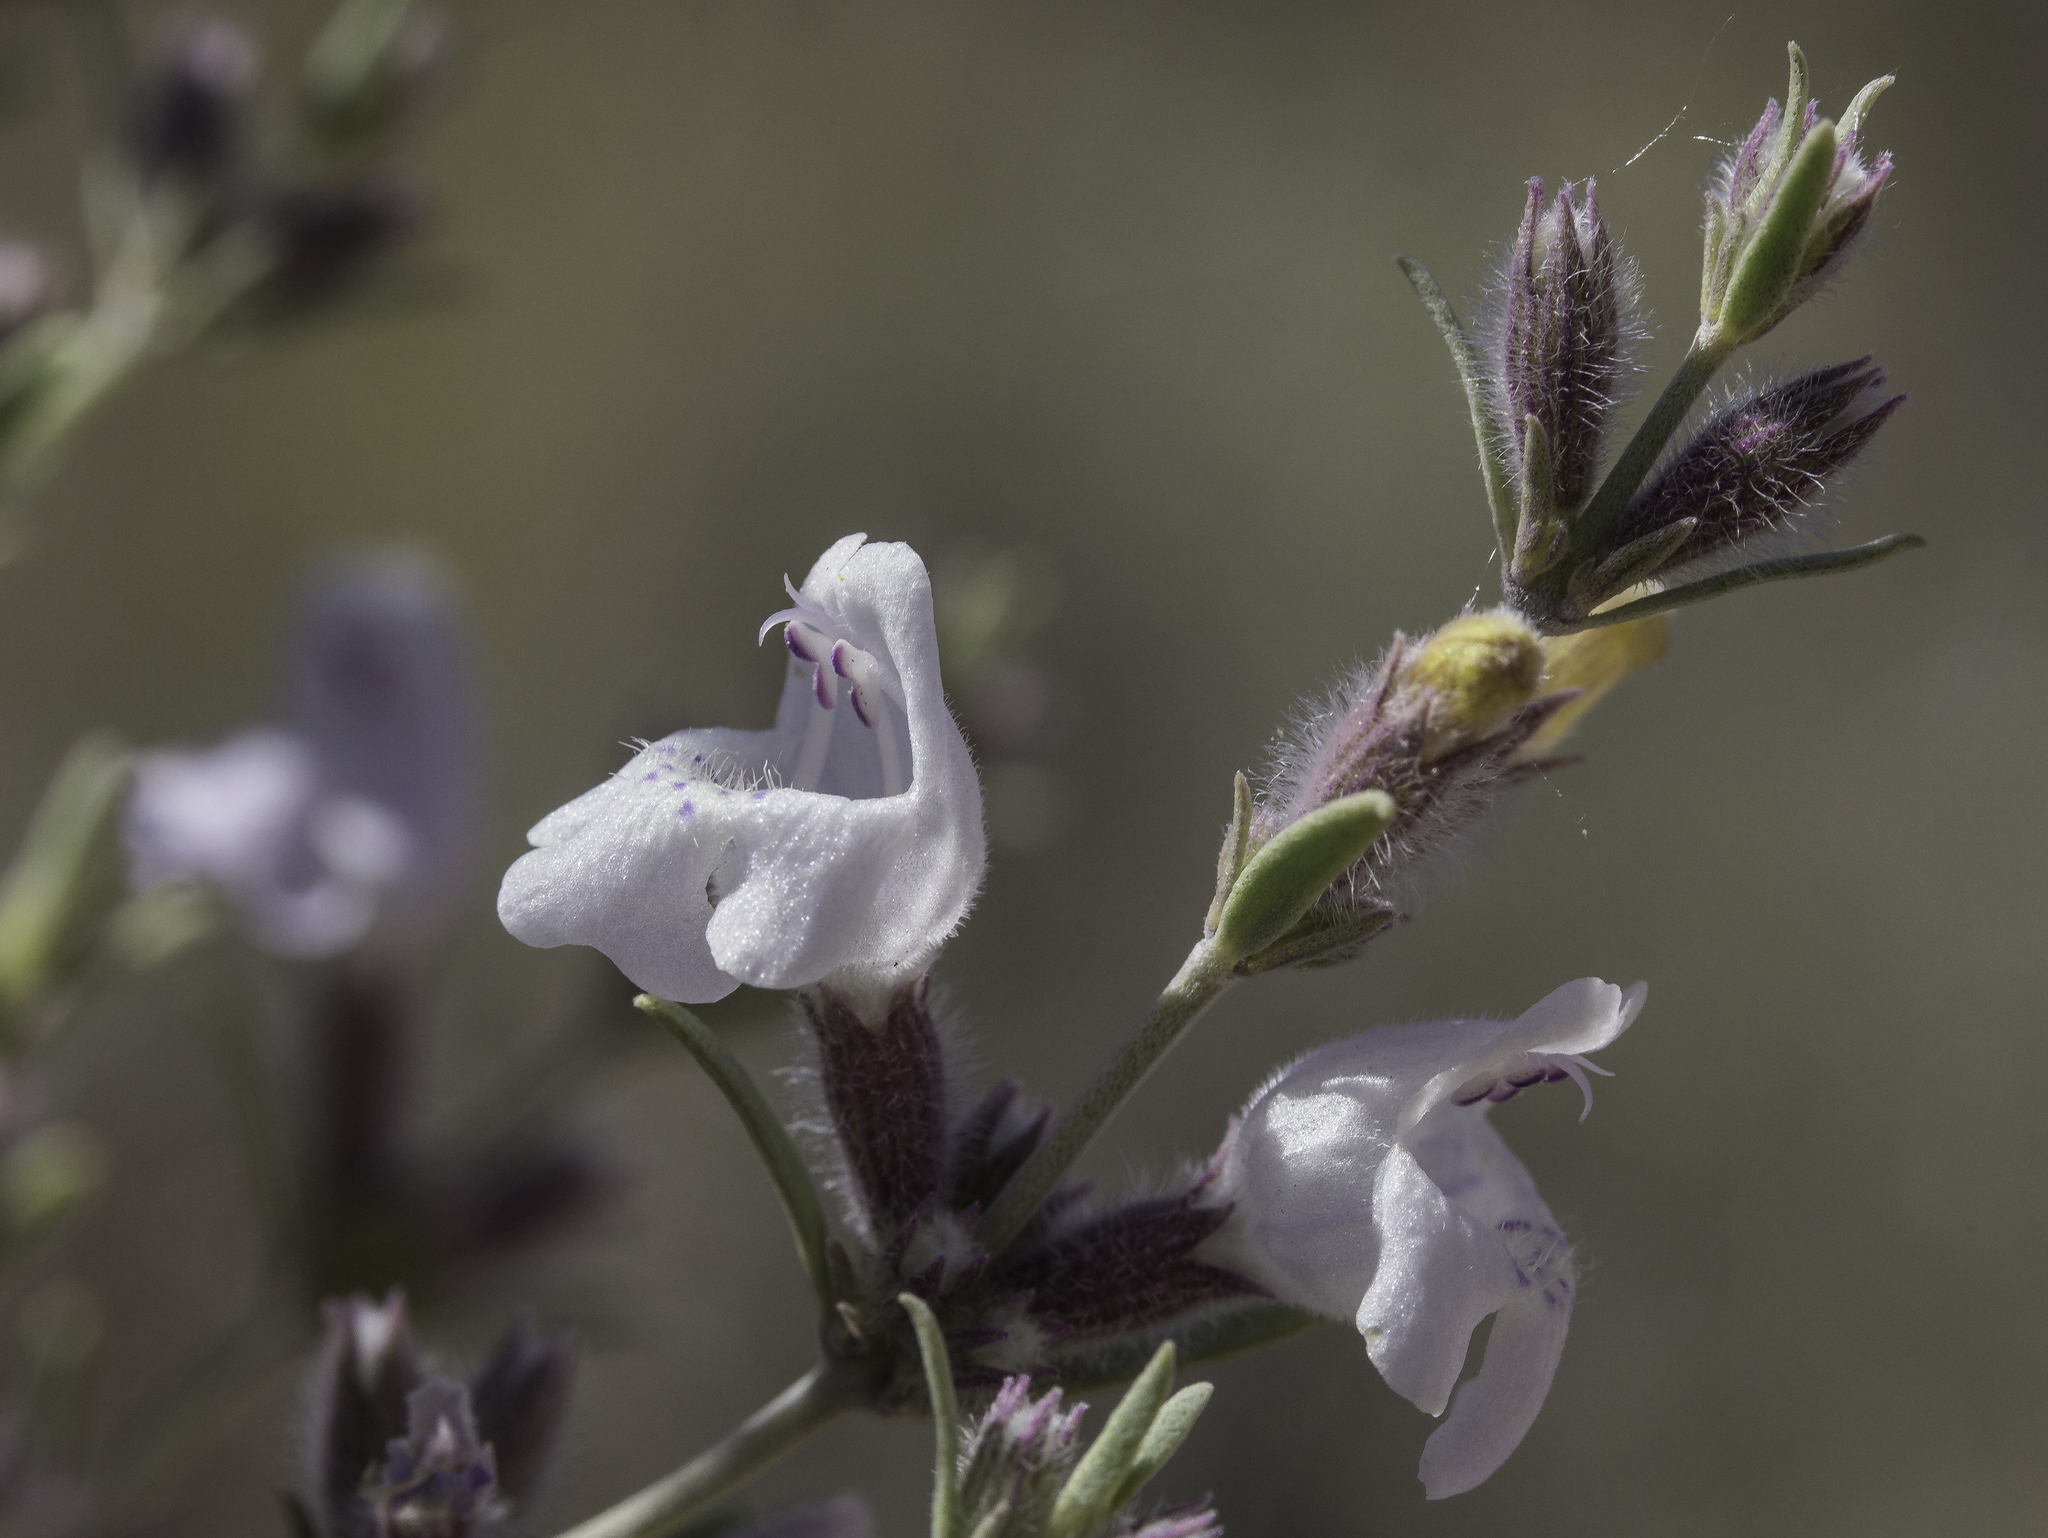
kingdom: Plantae
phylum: Tracheophyta
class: Magnoliopsida
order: Lamiales
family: Lamiaceae
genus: Poliomintha
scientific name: Poliomintha incana
